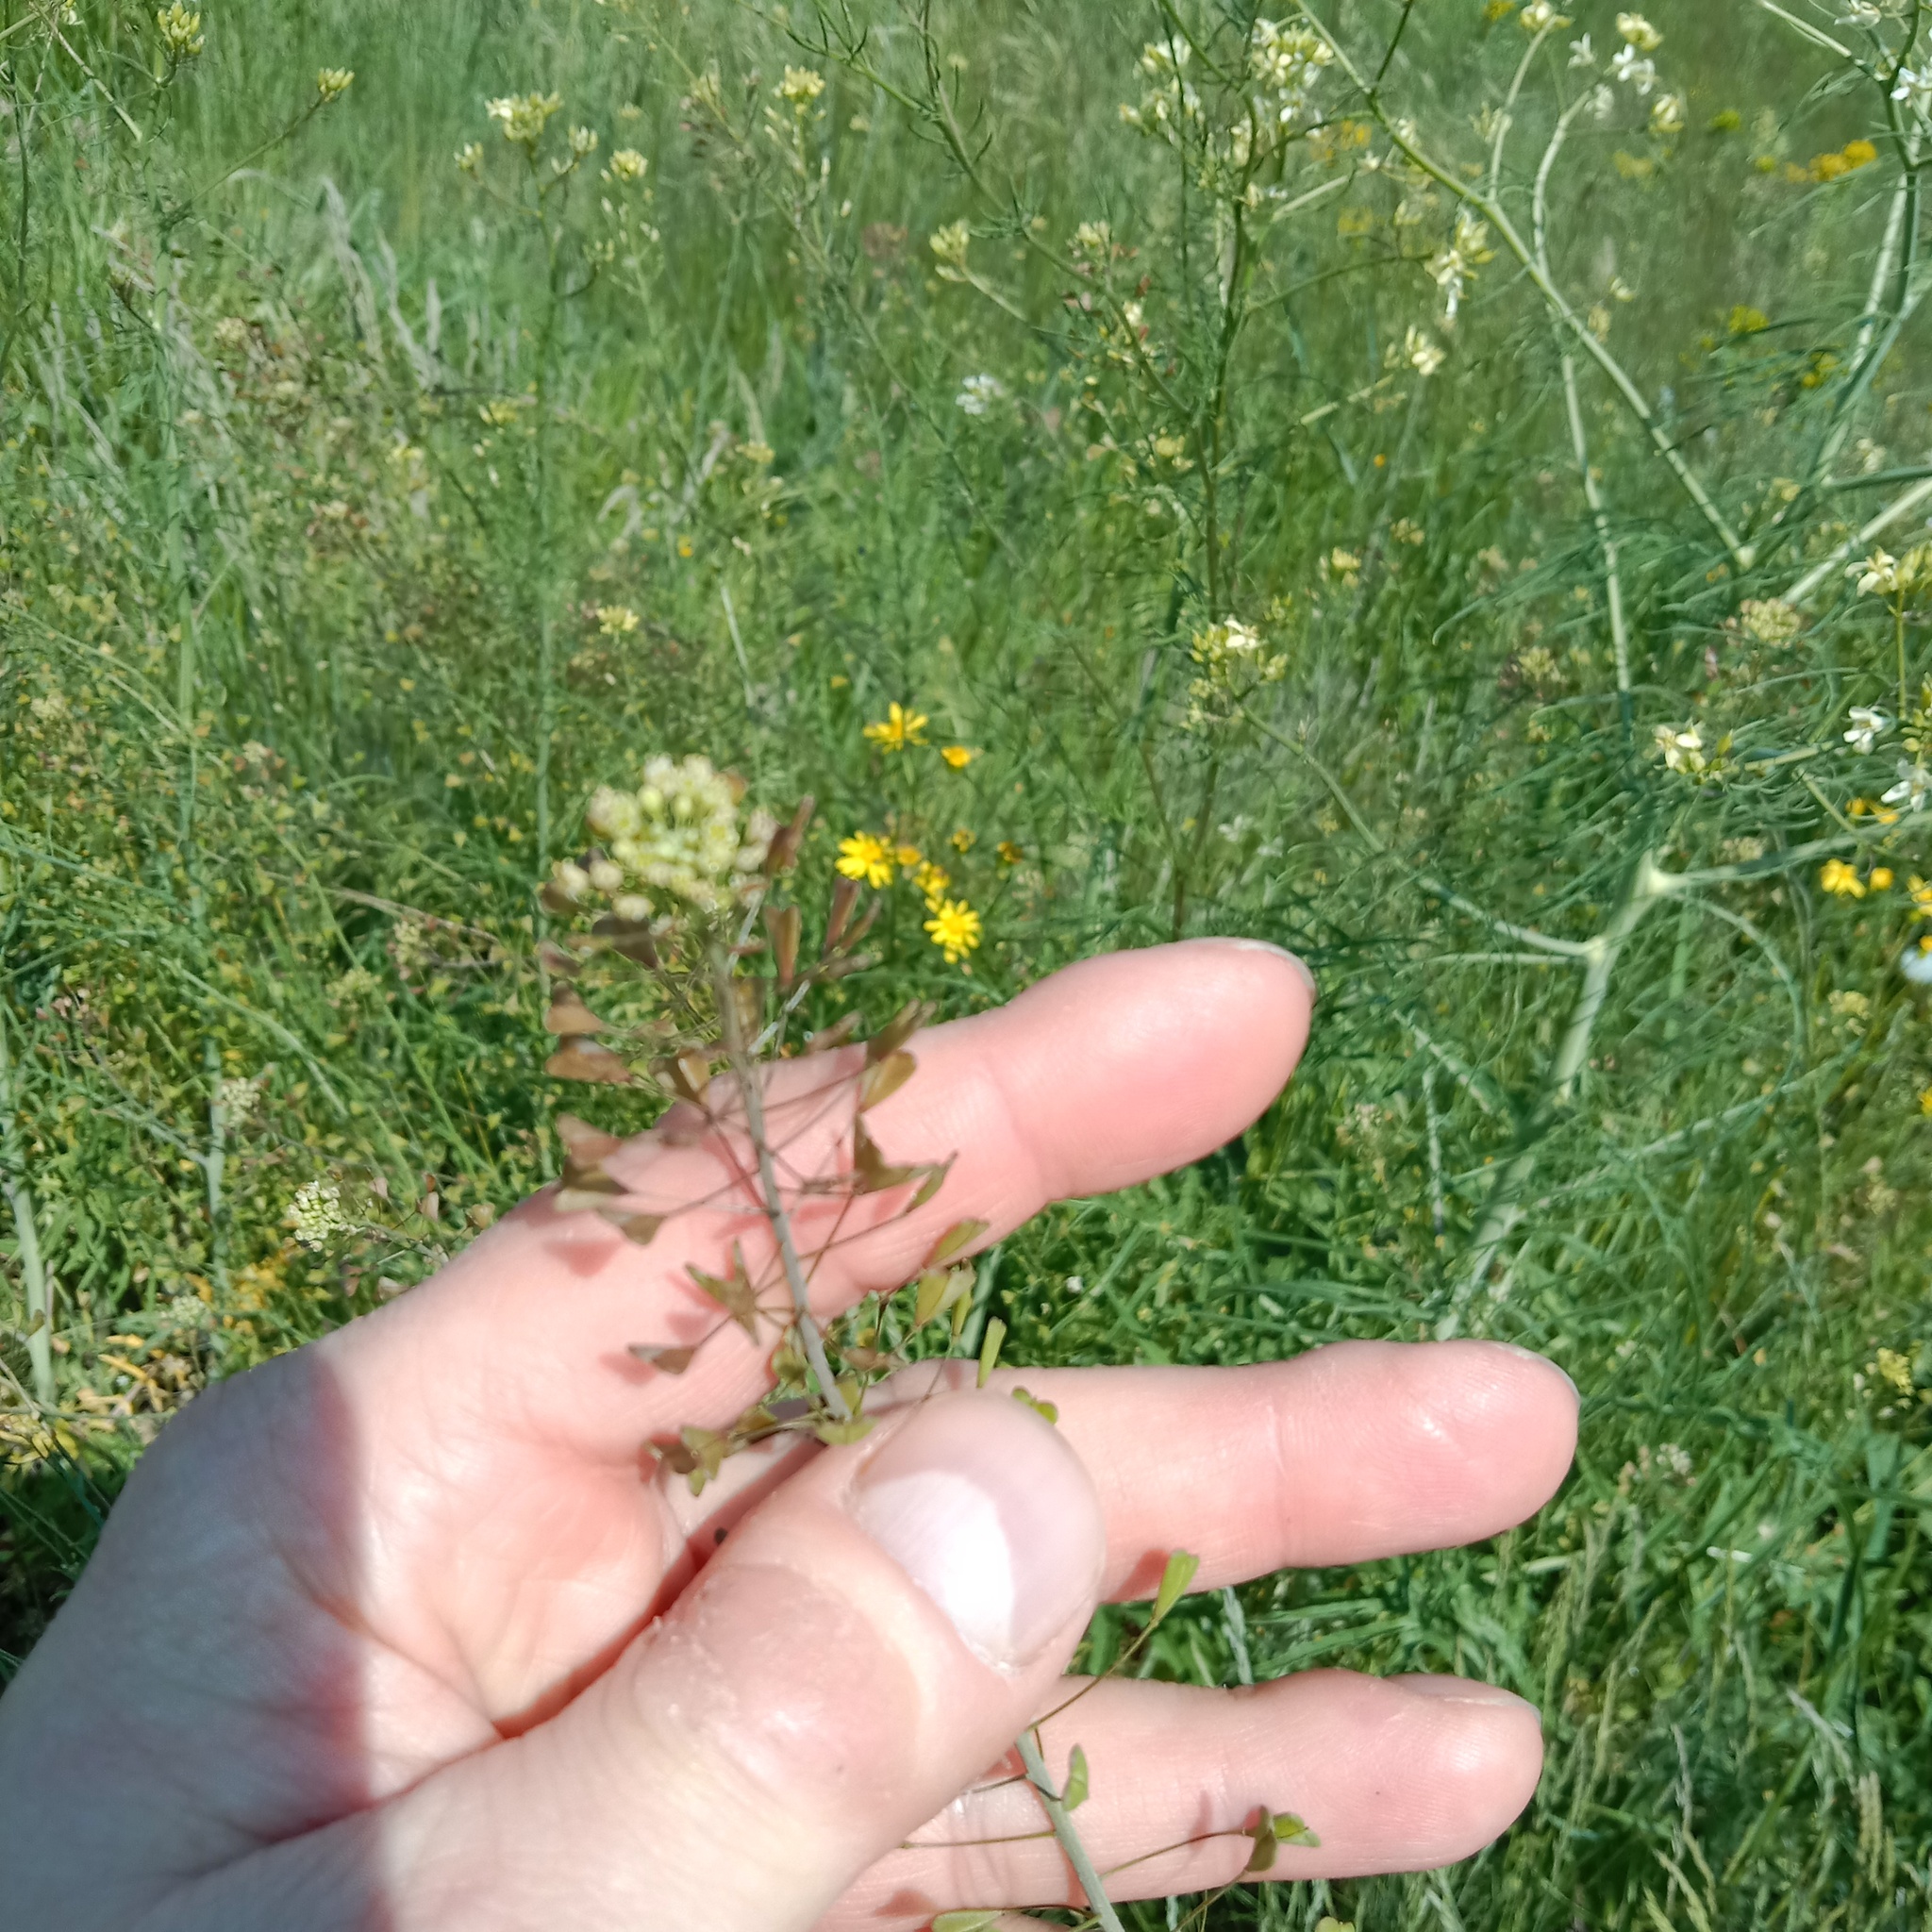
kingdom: Plantae
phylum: Tracheophyta
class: Magnoliopsida
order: Brassicales
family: Brassicaceae
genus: Capsella
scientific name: Capsella bursa-pastoris
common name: Shepherd's purse
